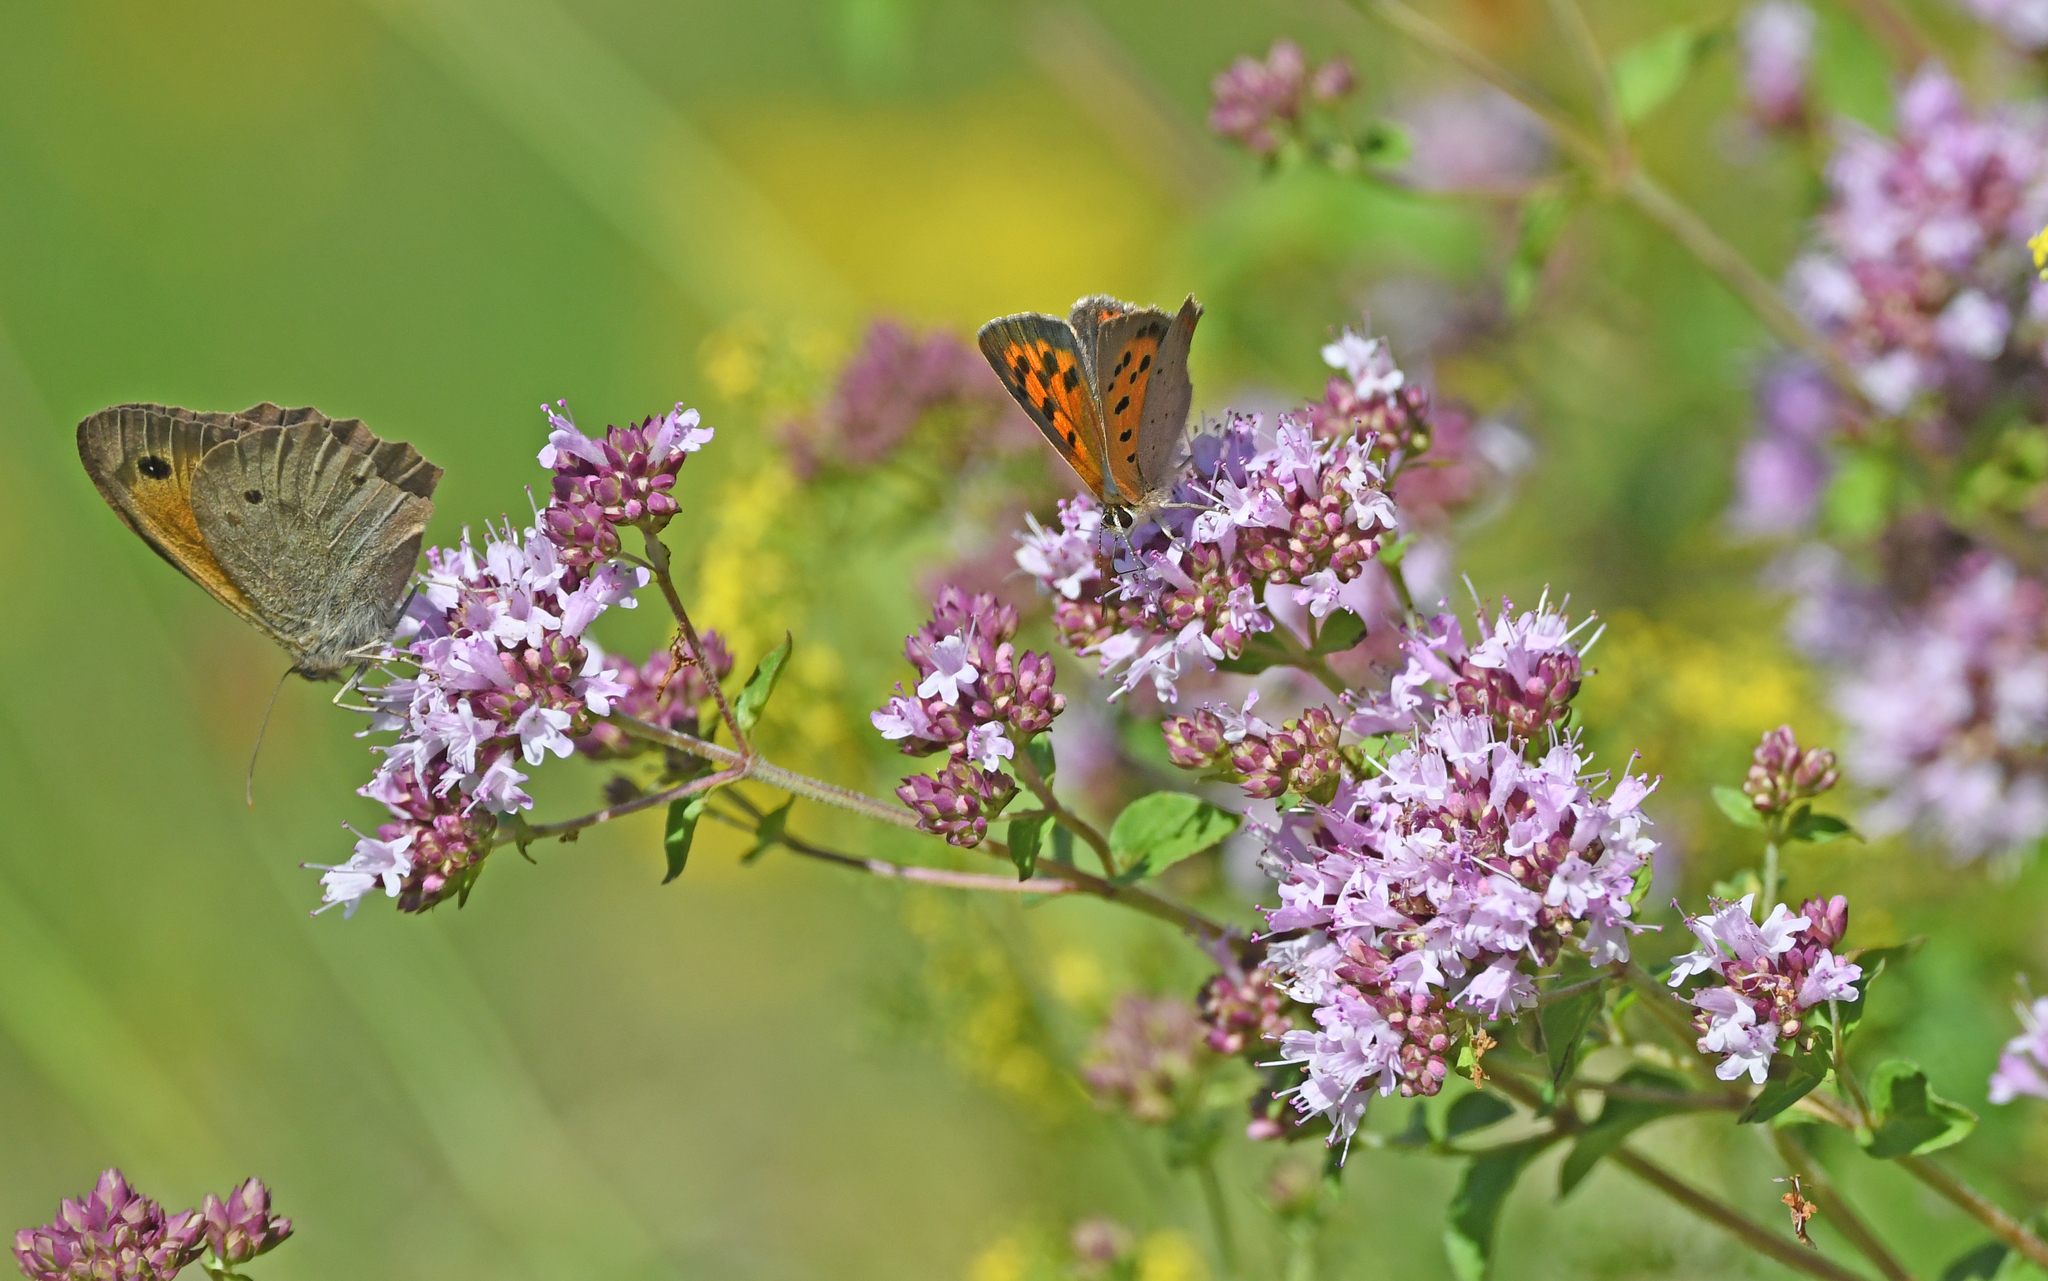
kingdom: Animalia
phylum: Arthropoda
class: Insecta
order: Lepidoptera
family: Lycaenidae
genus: Lycaena
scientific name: Lycaena phlaeas
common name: Small copper
